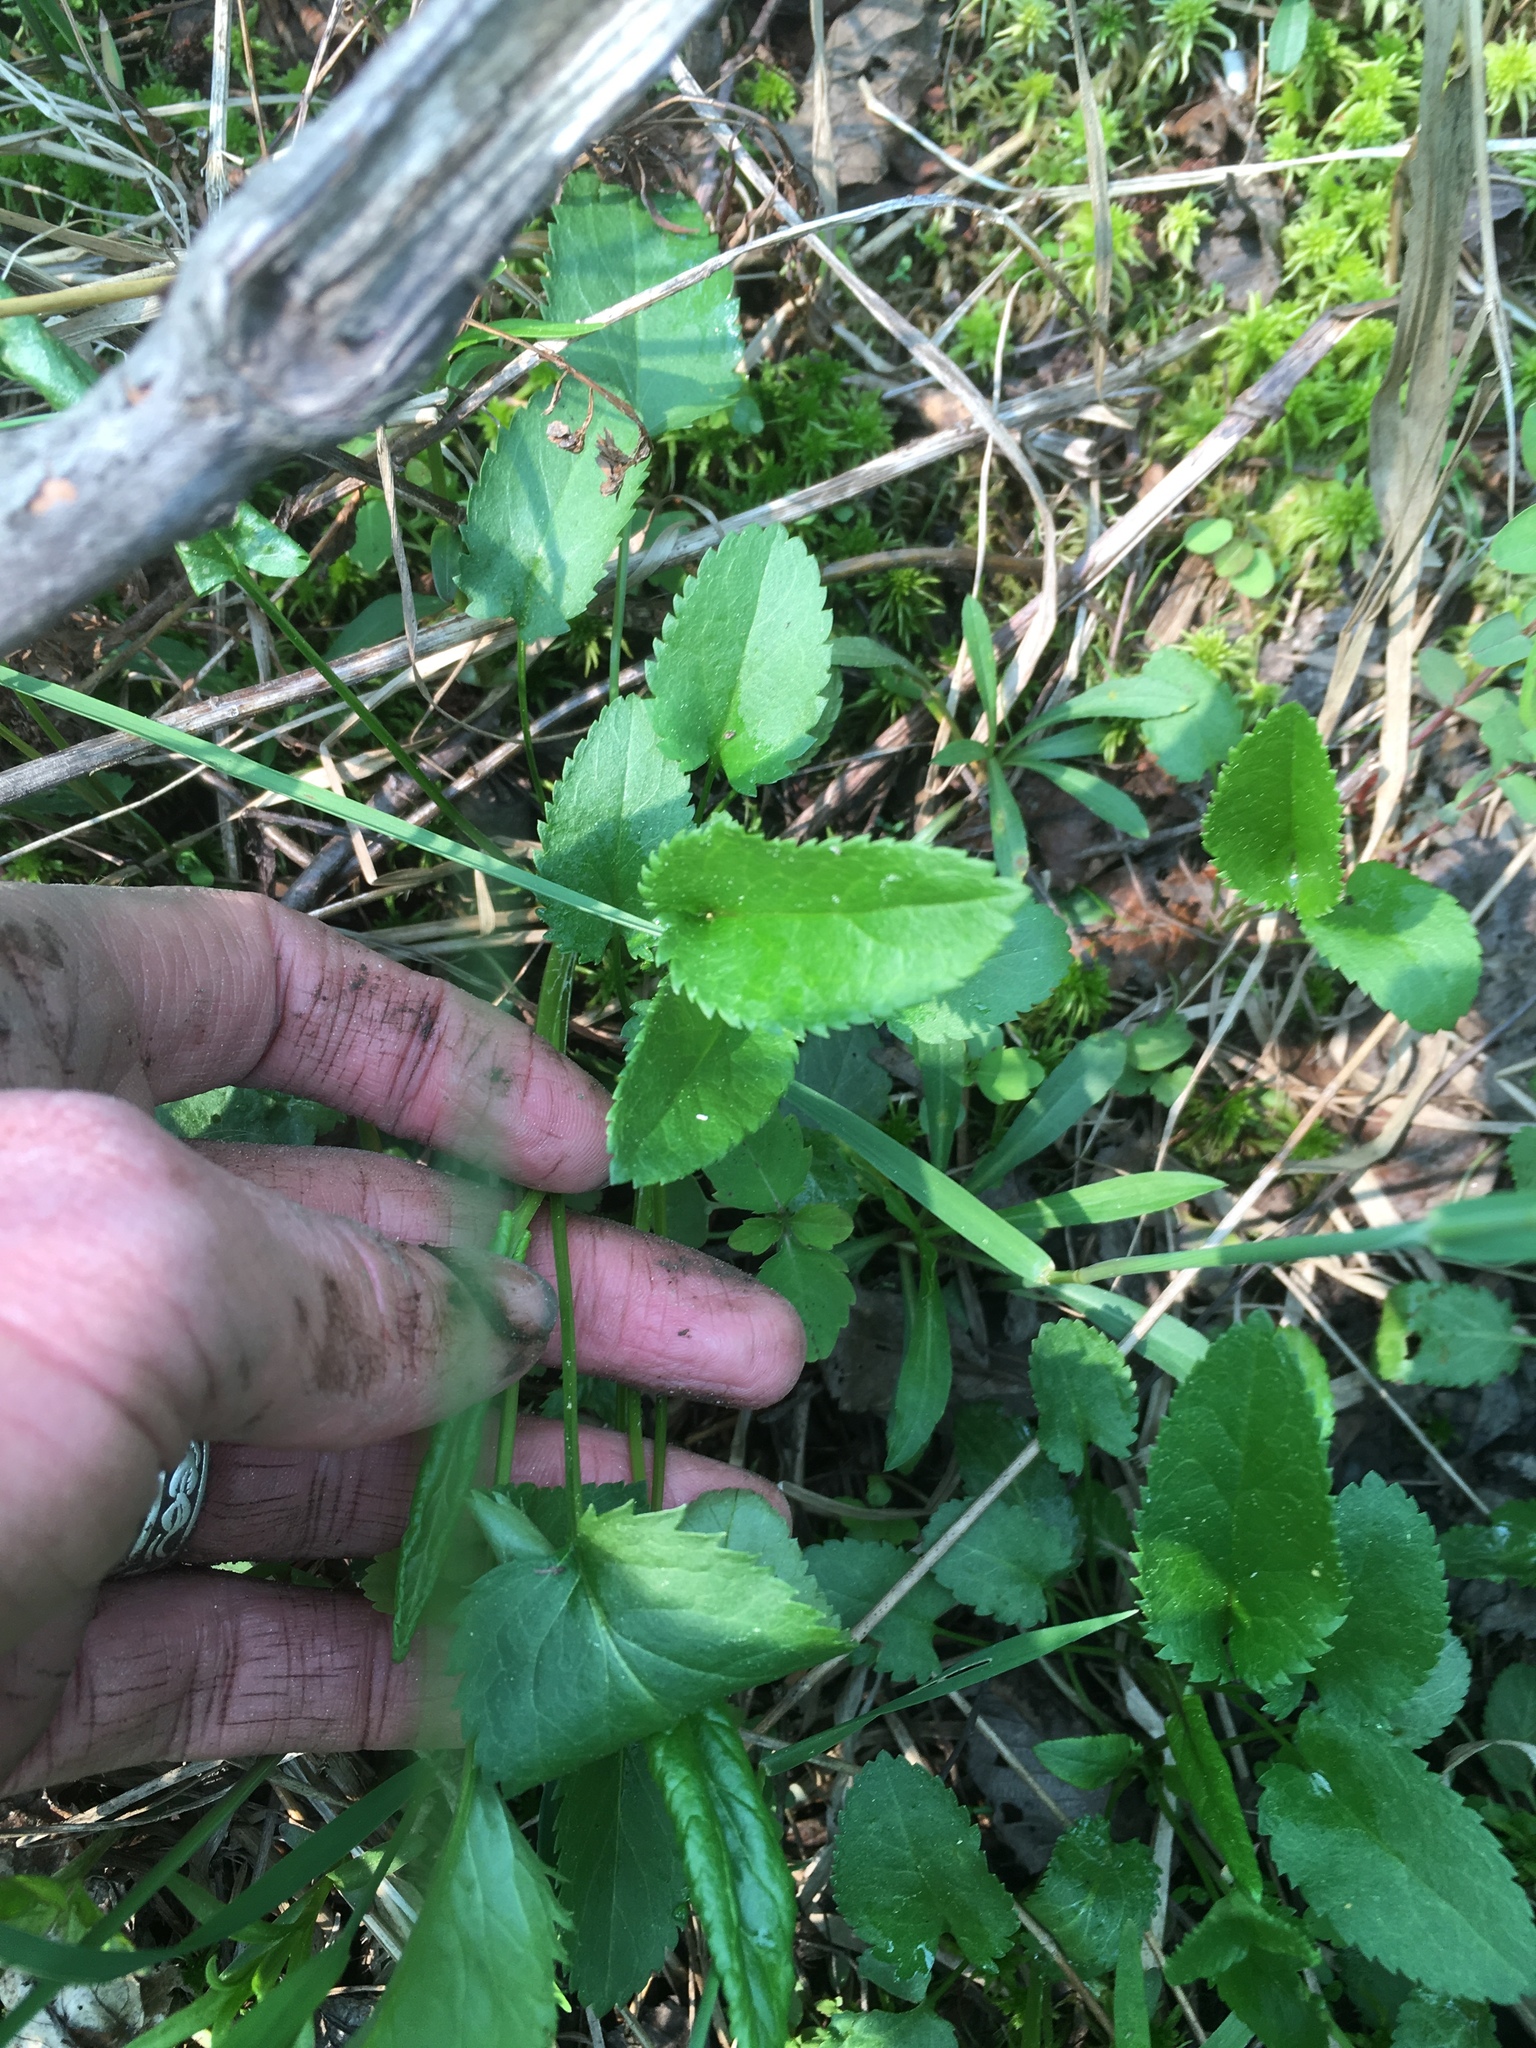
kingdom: Plantae
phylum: Tracheophyta
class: Magnoliopsida
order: Asterales
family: Asteraceae
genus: Packera
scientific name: Packera schweinitziana
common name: Schweinitz's ragwort
